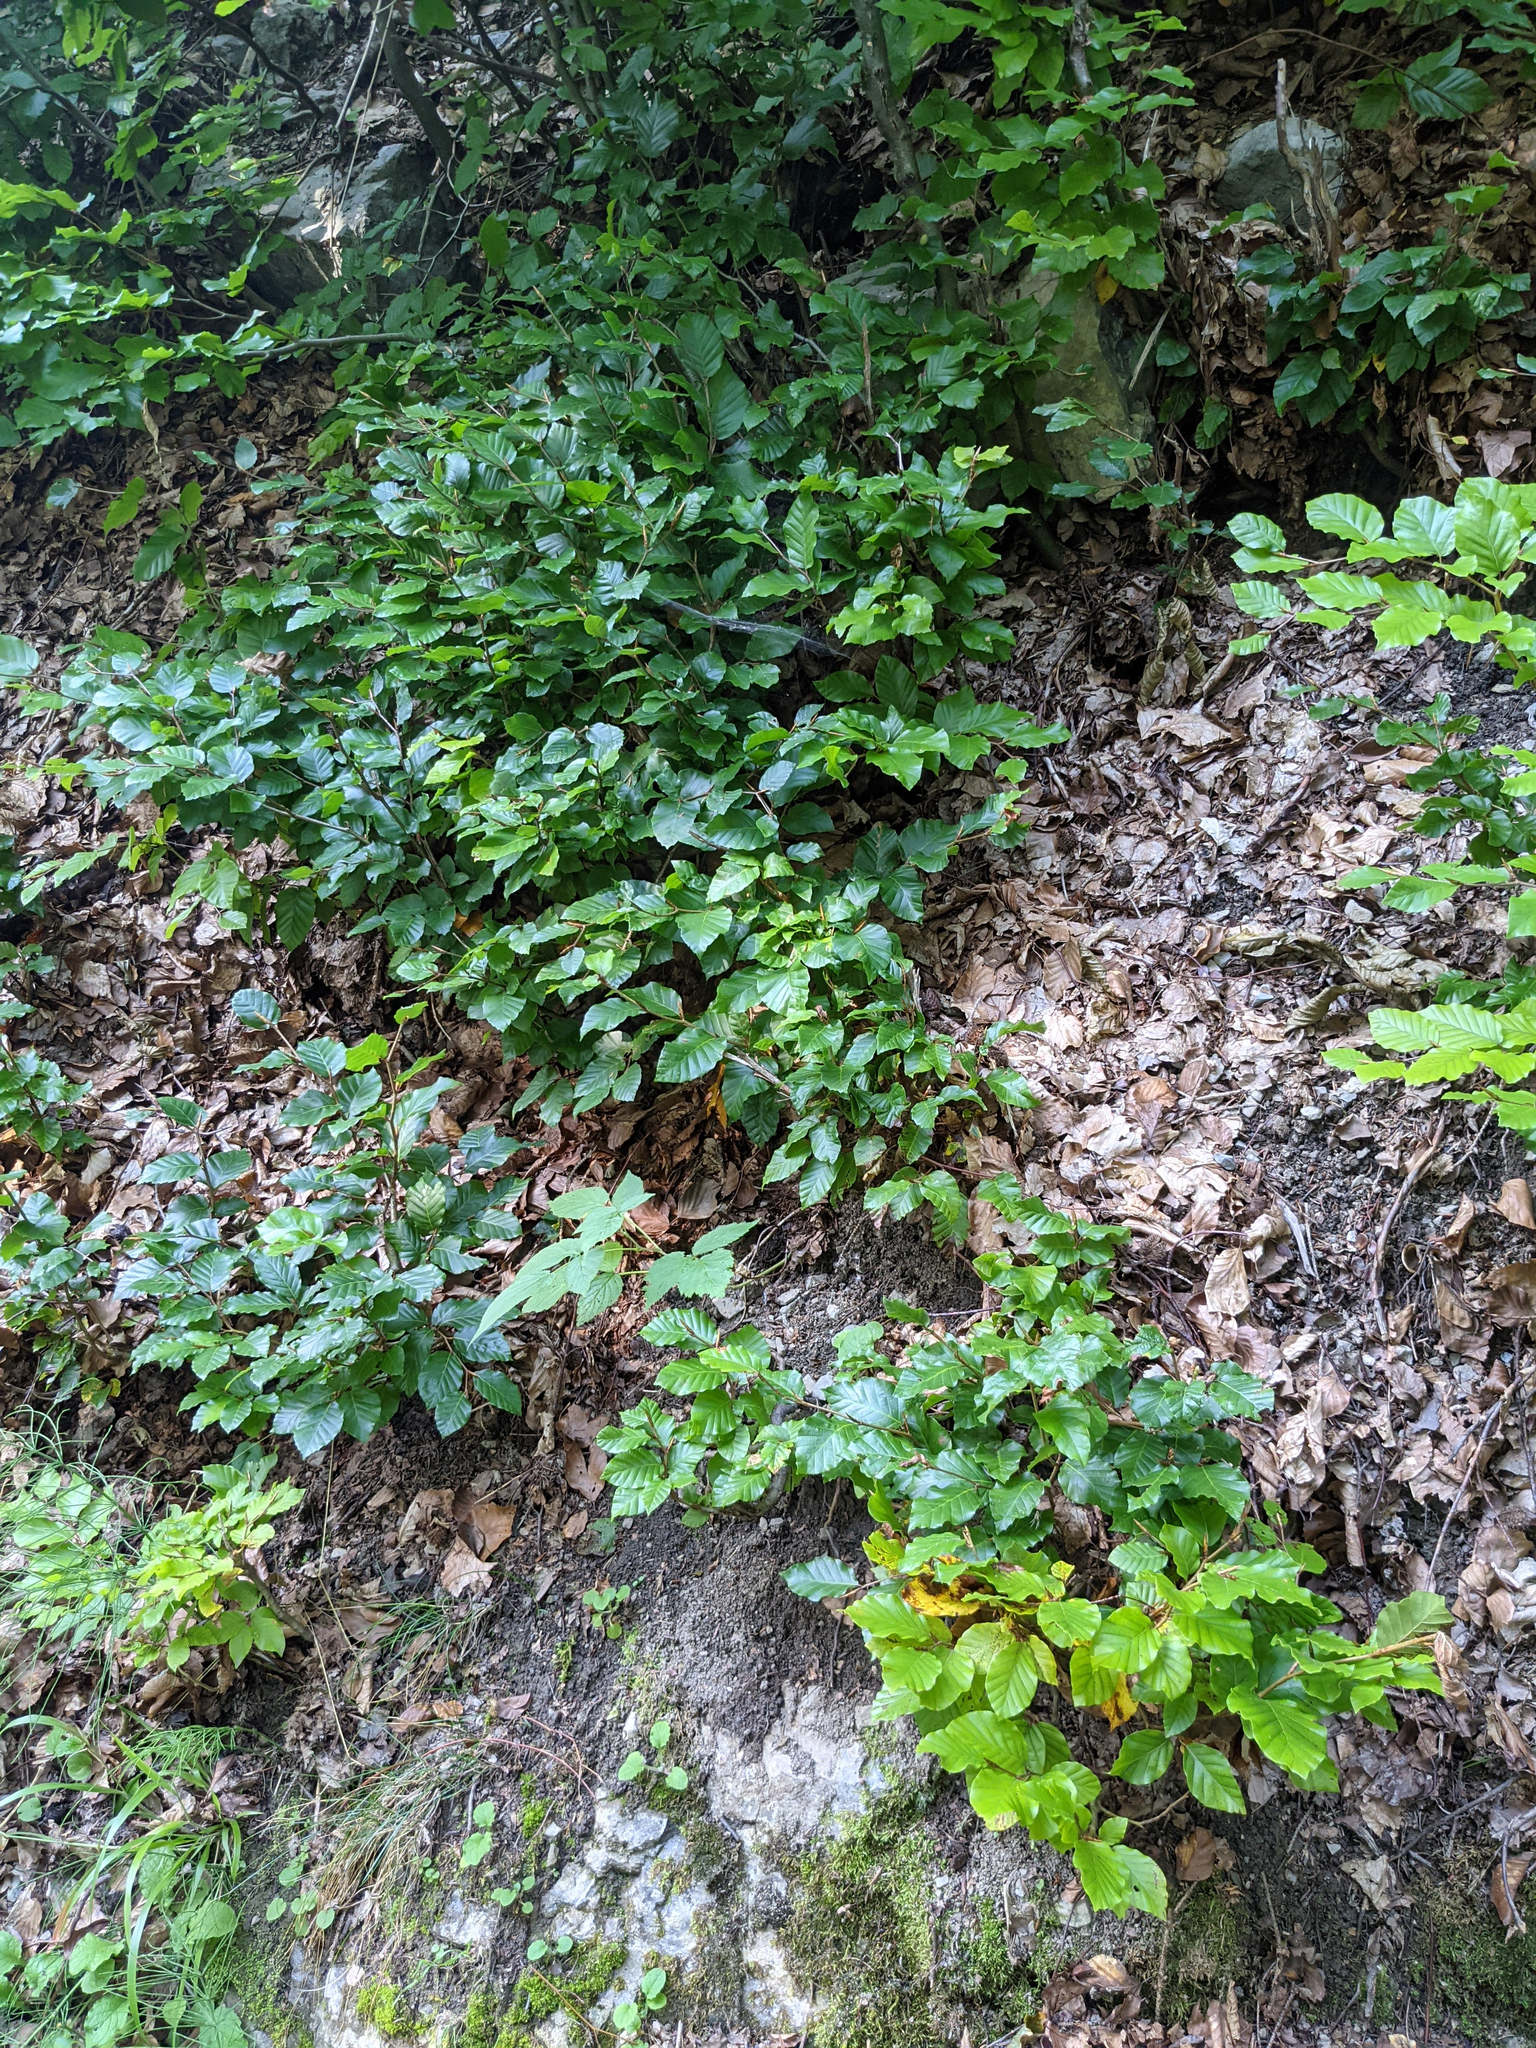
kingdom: Plantae
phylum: Tracheophyta
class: Magnoliopsida
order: Fagales
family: Fagaceae
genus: Fagus
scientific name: Fagus sylvatica
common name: Beech
